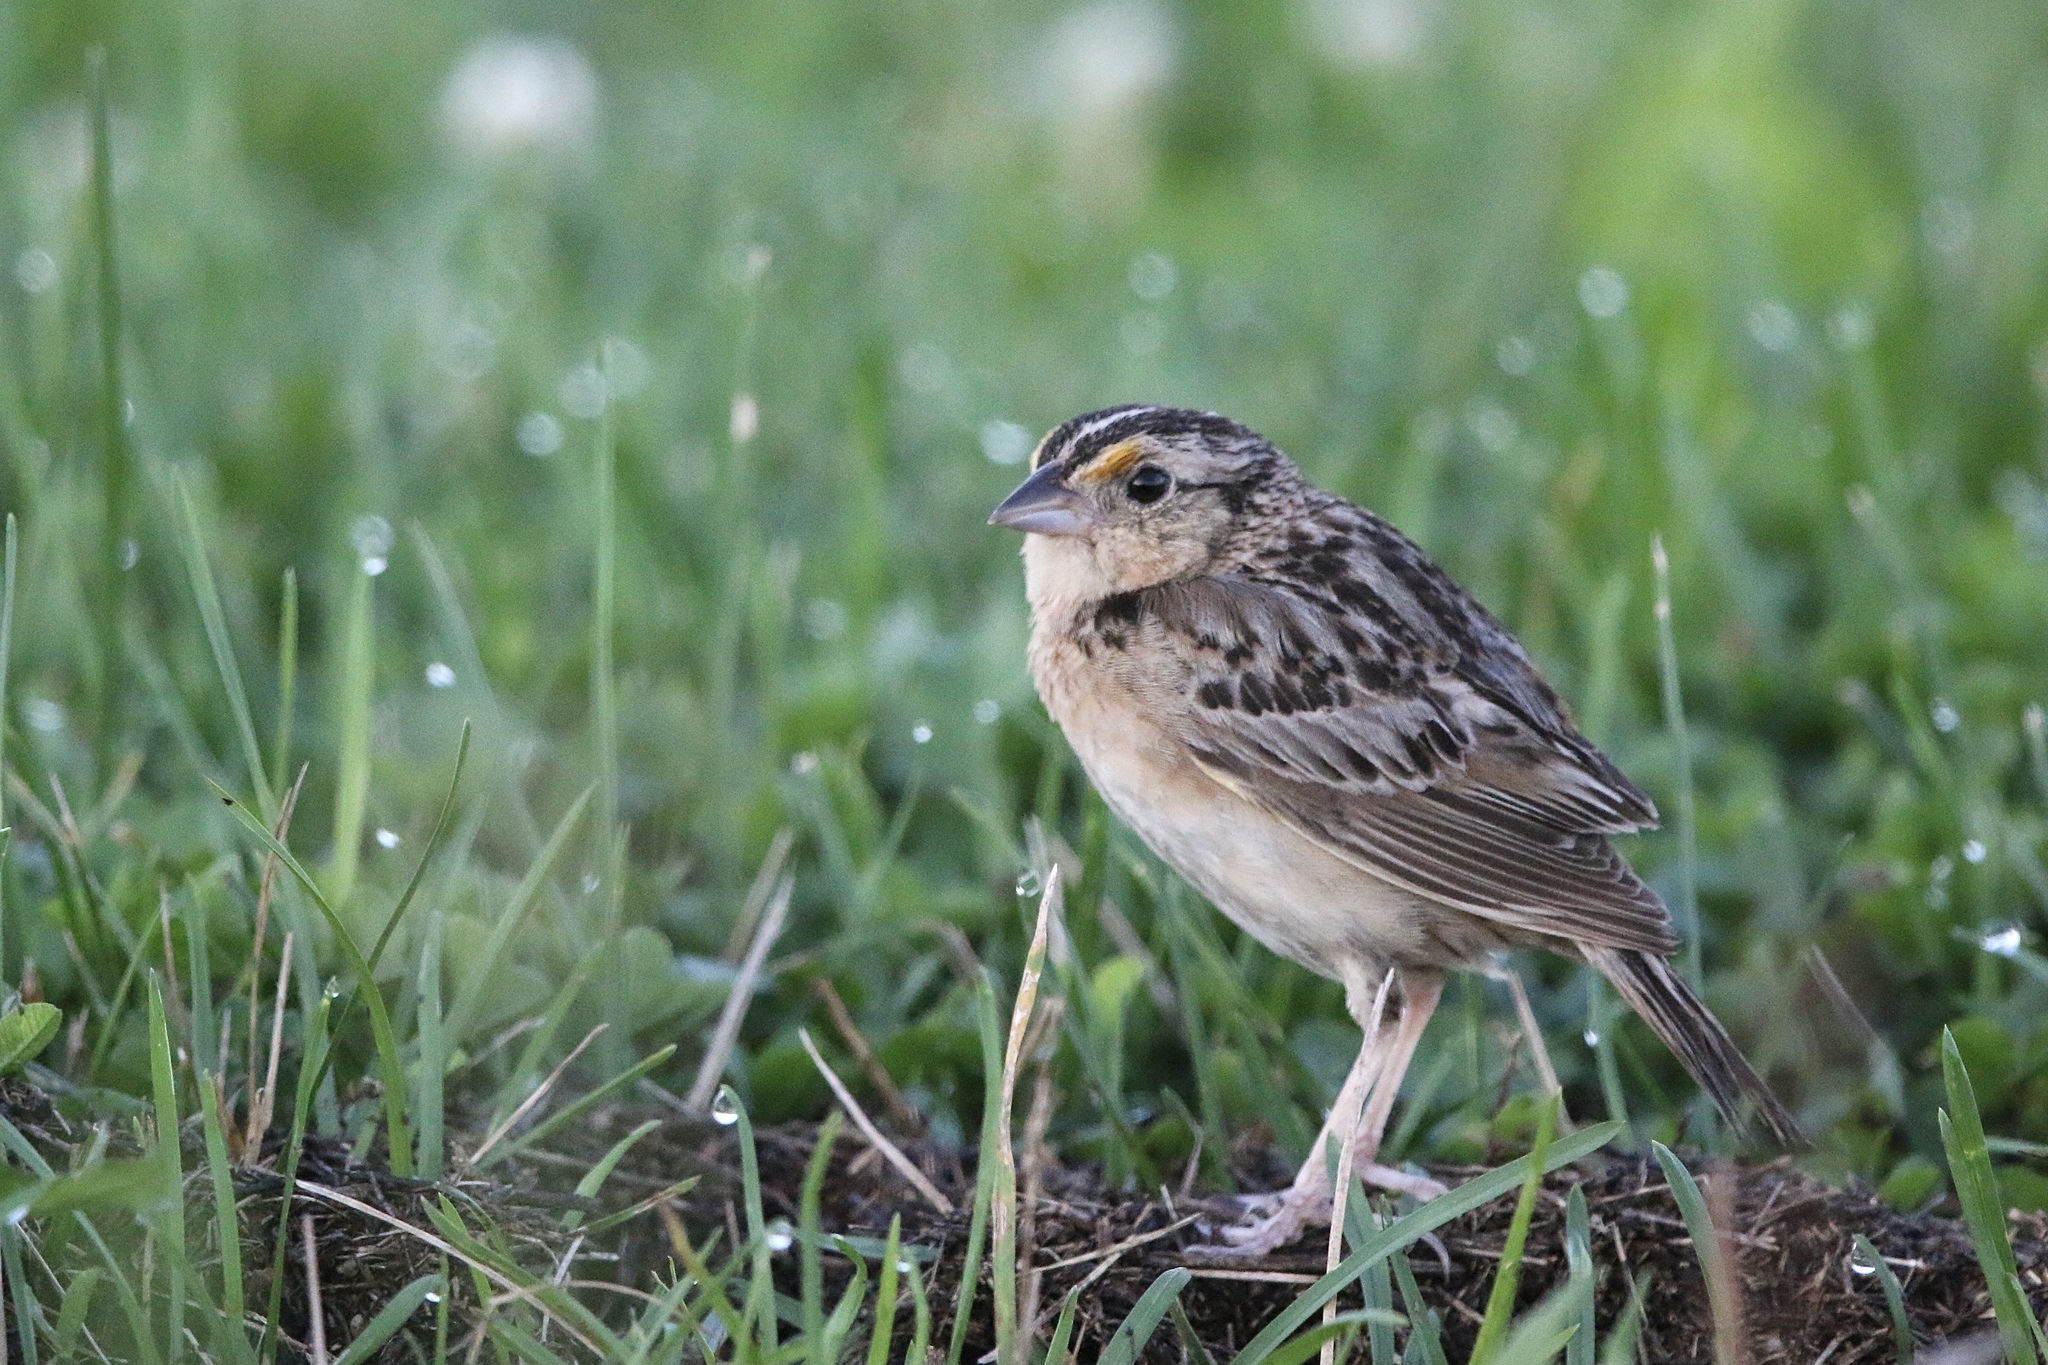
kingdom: Animalia
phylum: Chordata
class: Aves
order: Passeriformes
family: Passerellidae
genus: Ammodramus
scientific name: Ammodramus savannarum
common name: Grasshopper sparrow
